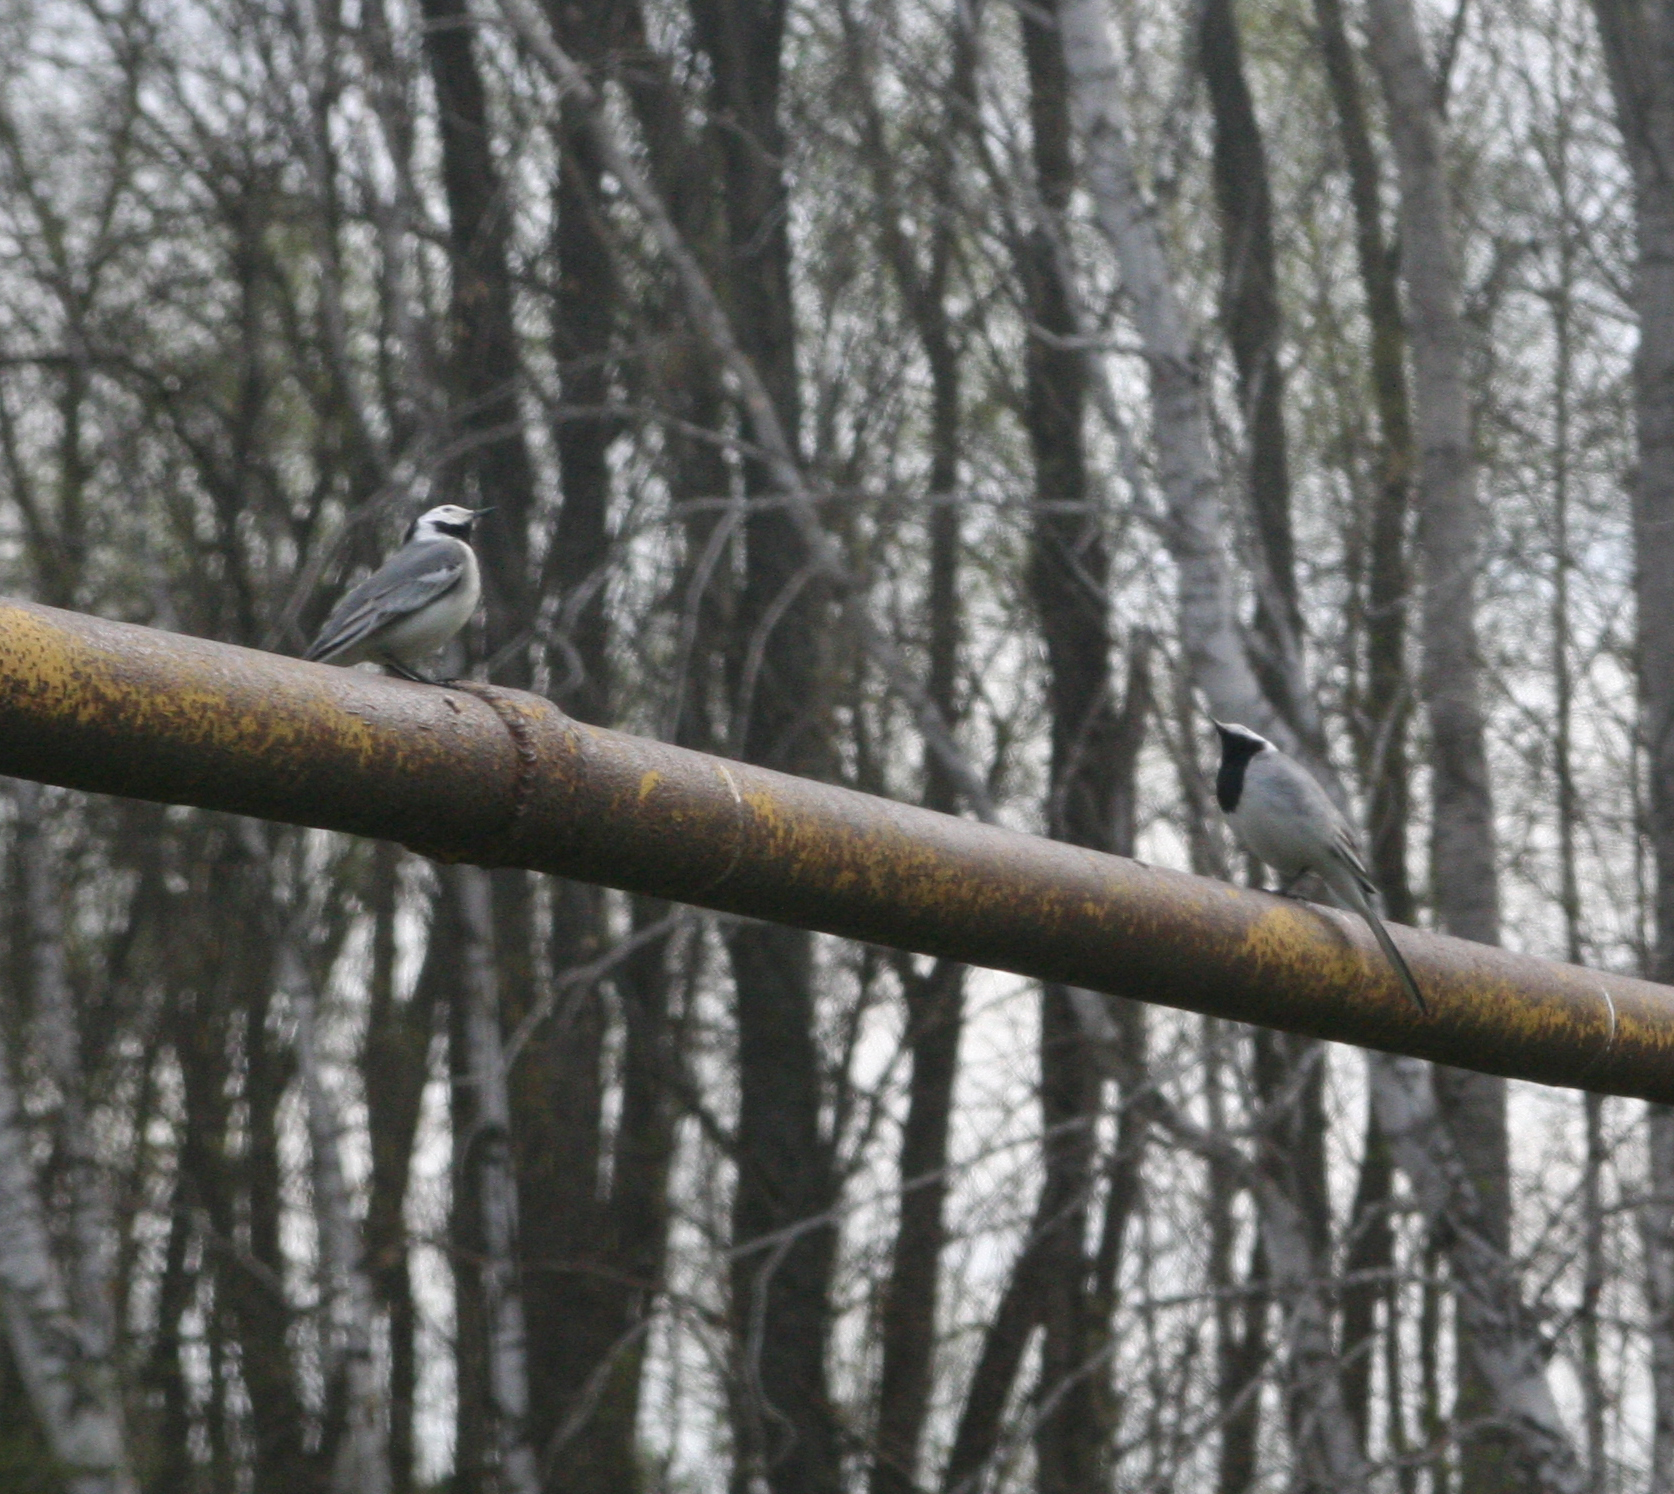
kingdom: Animalia
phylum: Chordata
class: Aves
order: Passeriformes
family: Motacillidae
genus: Motacilla
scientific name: Motacilla alba
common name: White wagtail
